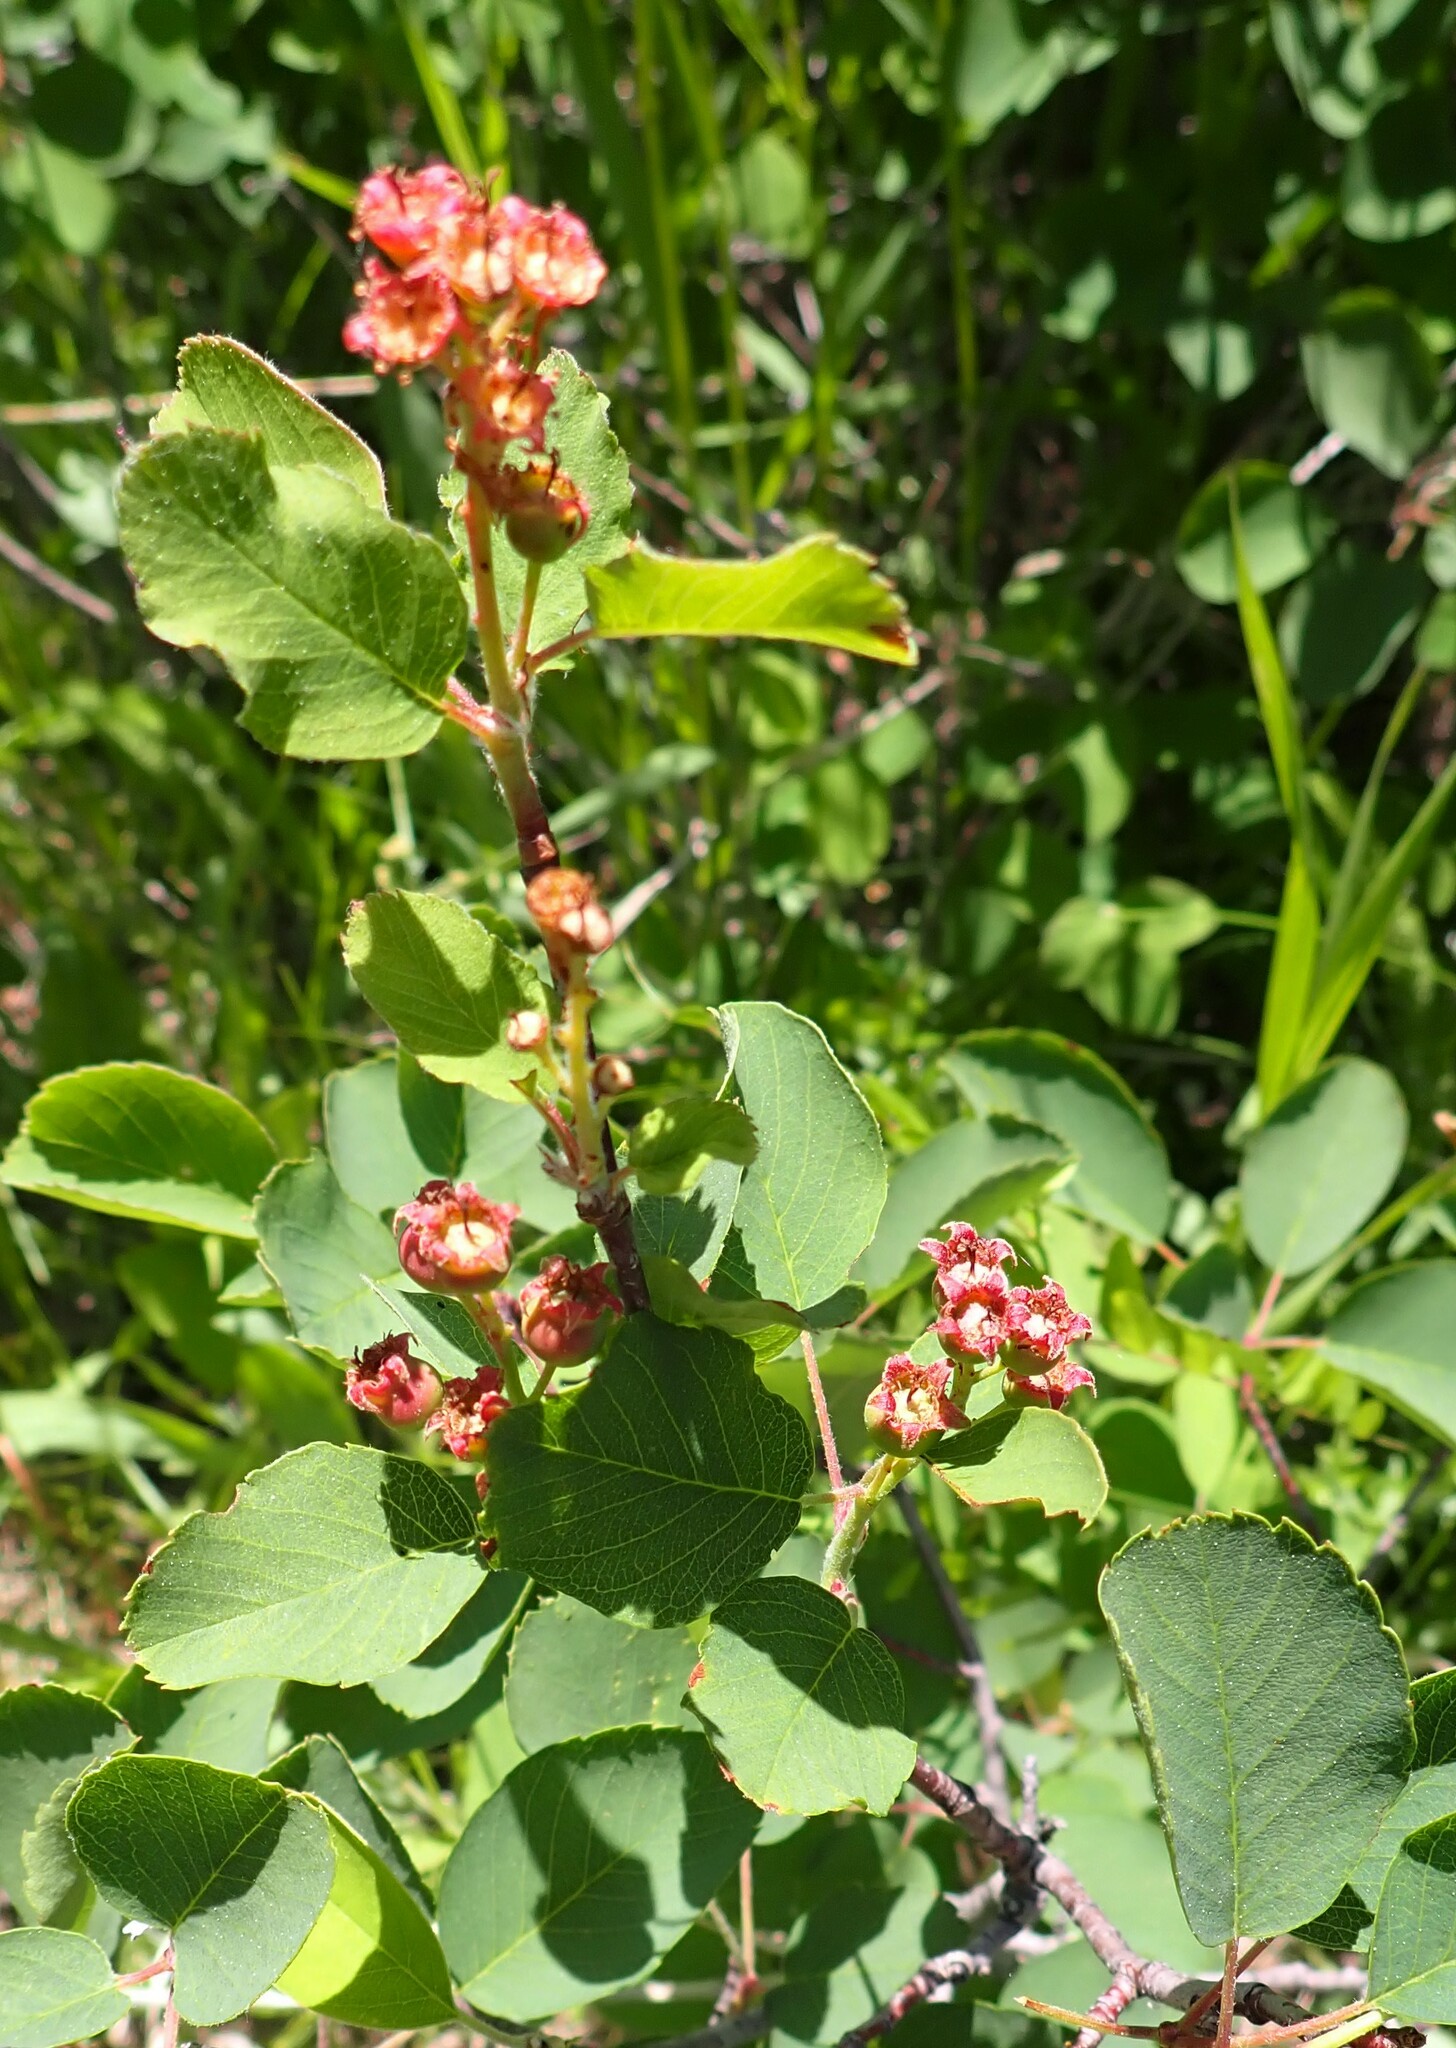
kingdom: Plantae
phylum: Tracheophyta
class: Magnoliopsida
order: Rosales
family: Rosaceae
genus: Amelanchier
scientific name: Amelanchier alnifolia
